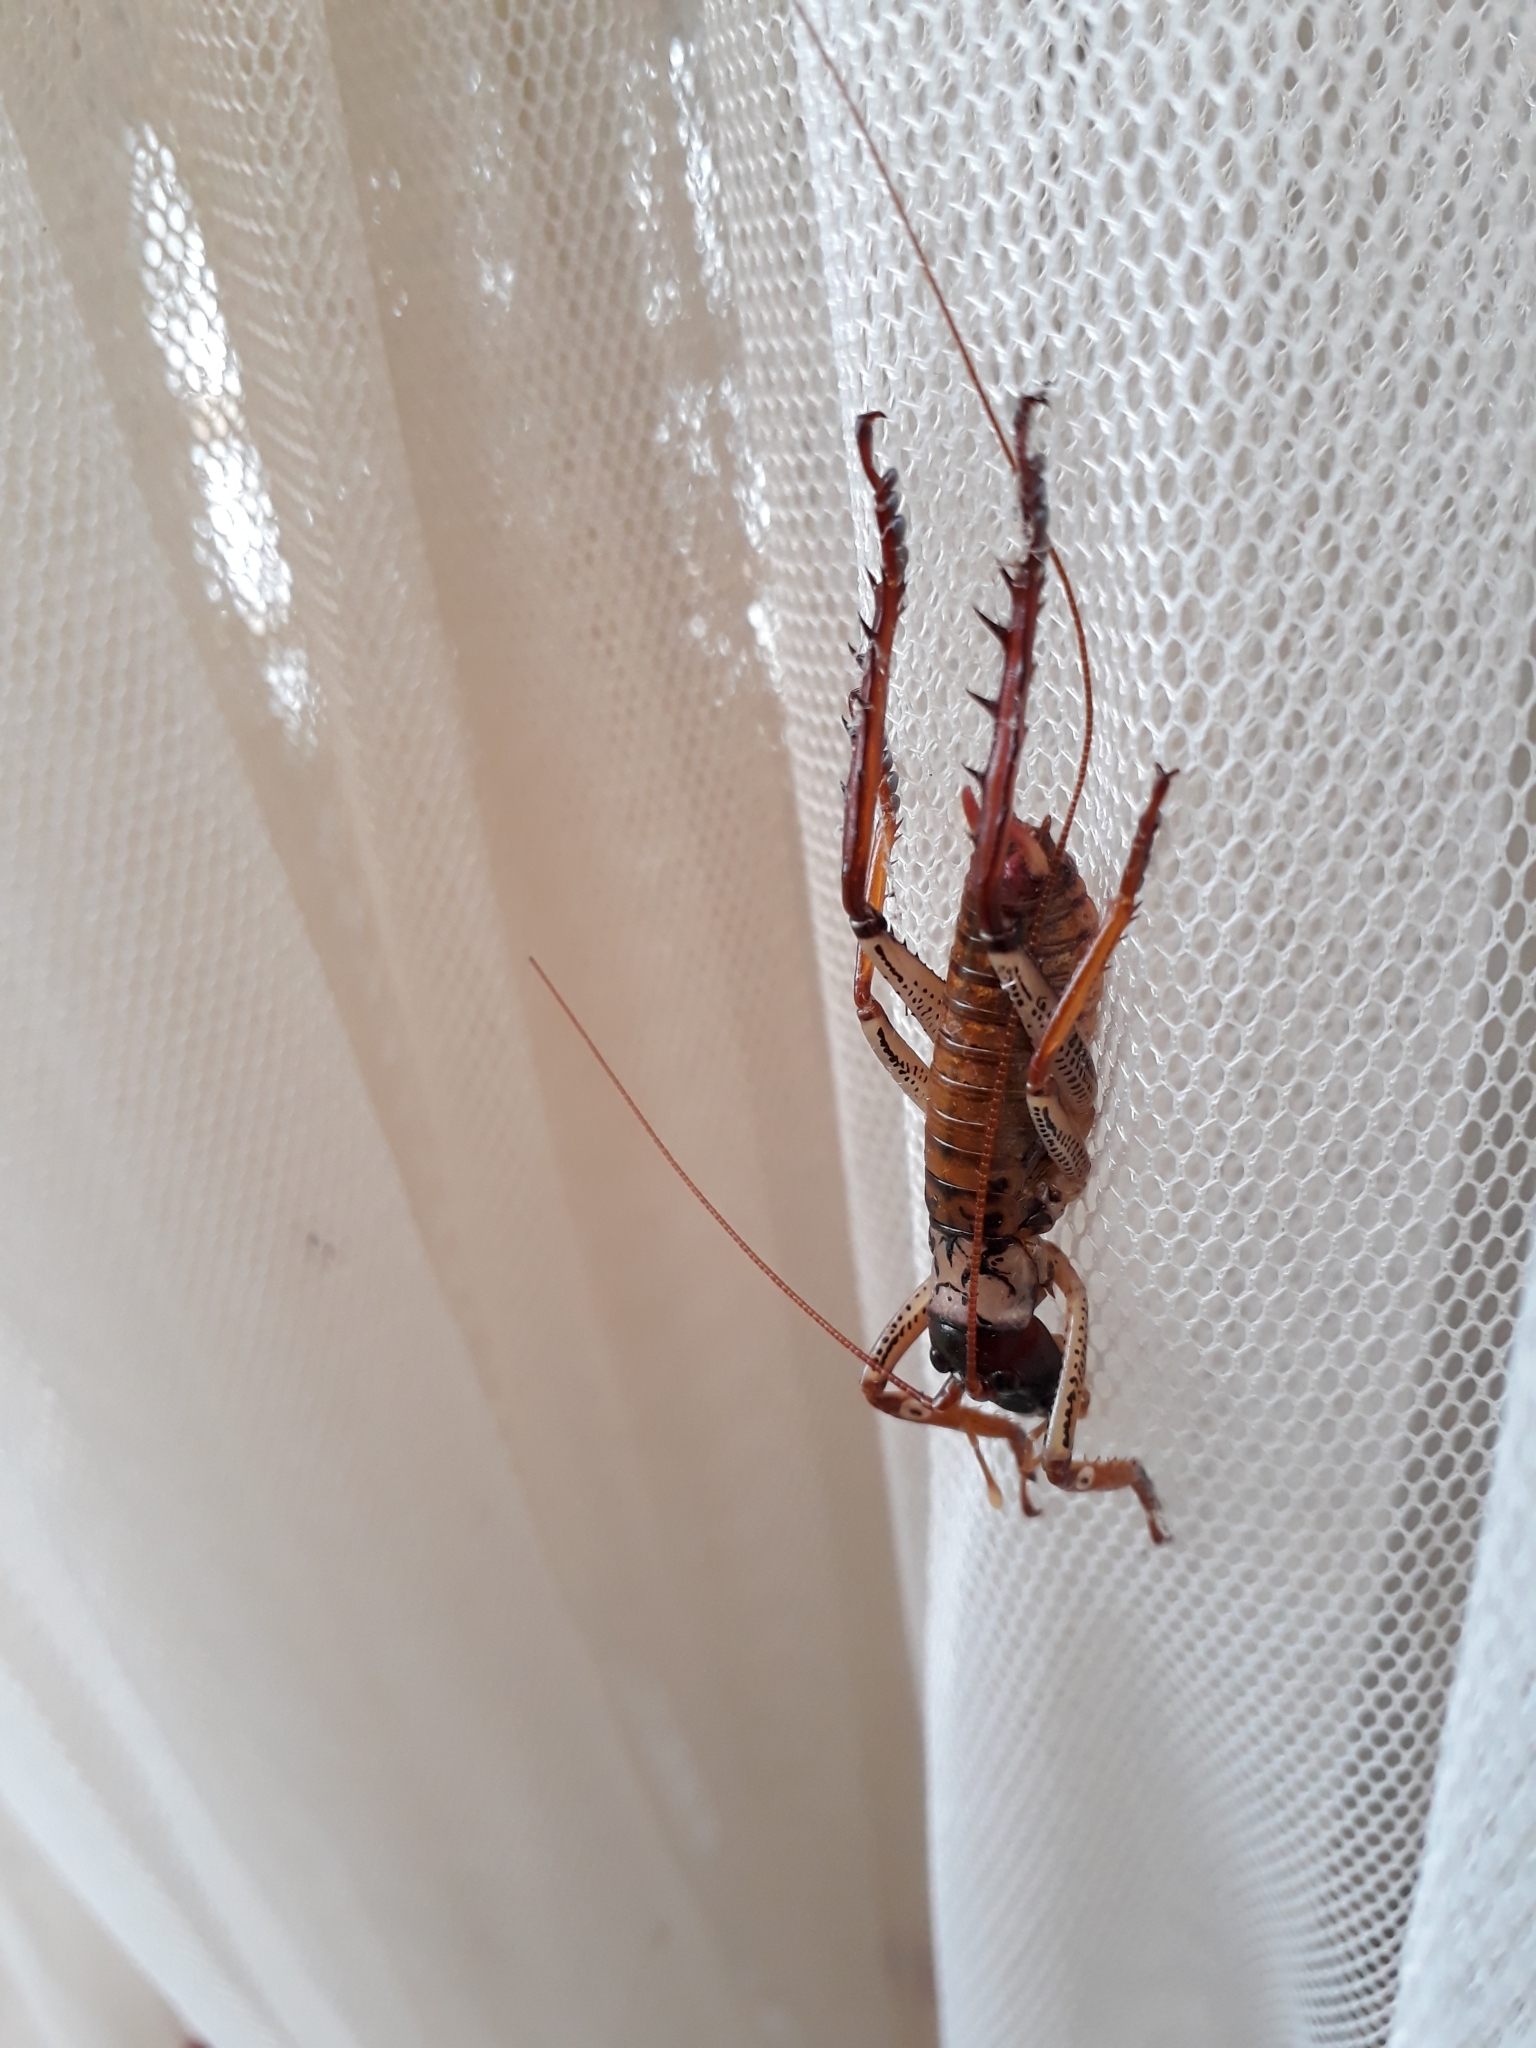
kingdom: Animalia
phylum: Arthropoda
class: Insecta
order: Orthoptera
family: Anostostomatidae
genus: Hemideina
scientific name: Hemideina thoracica
